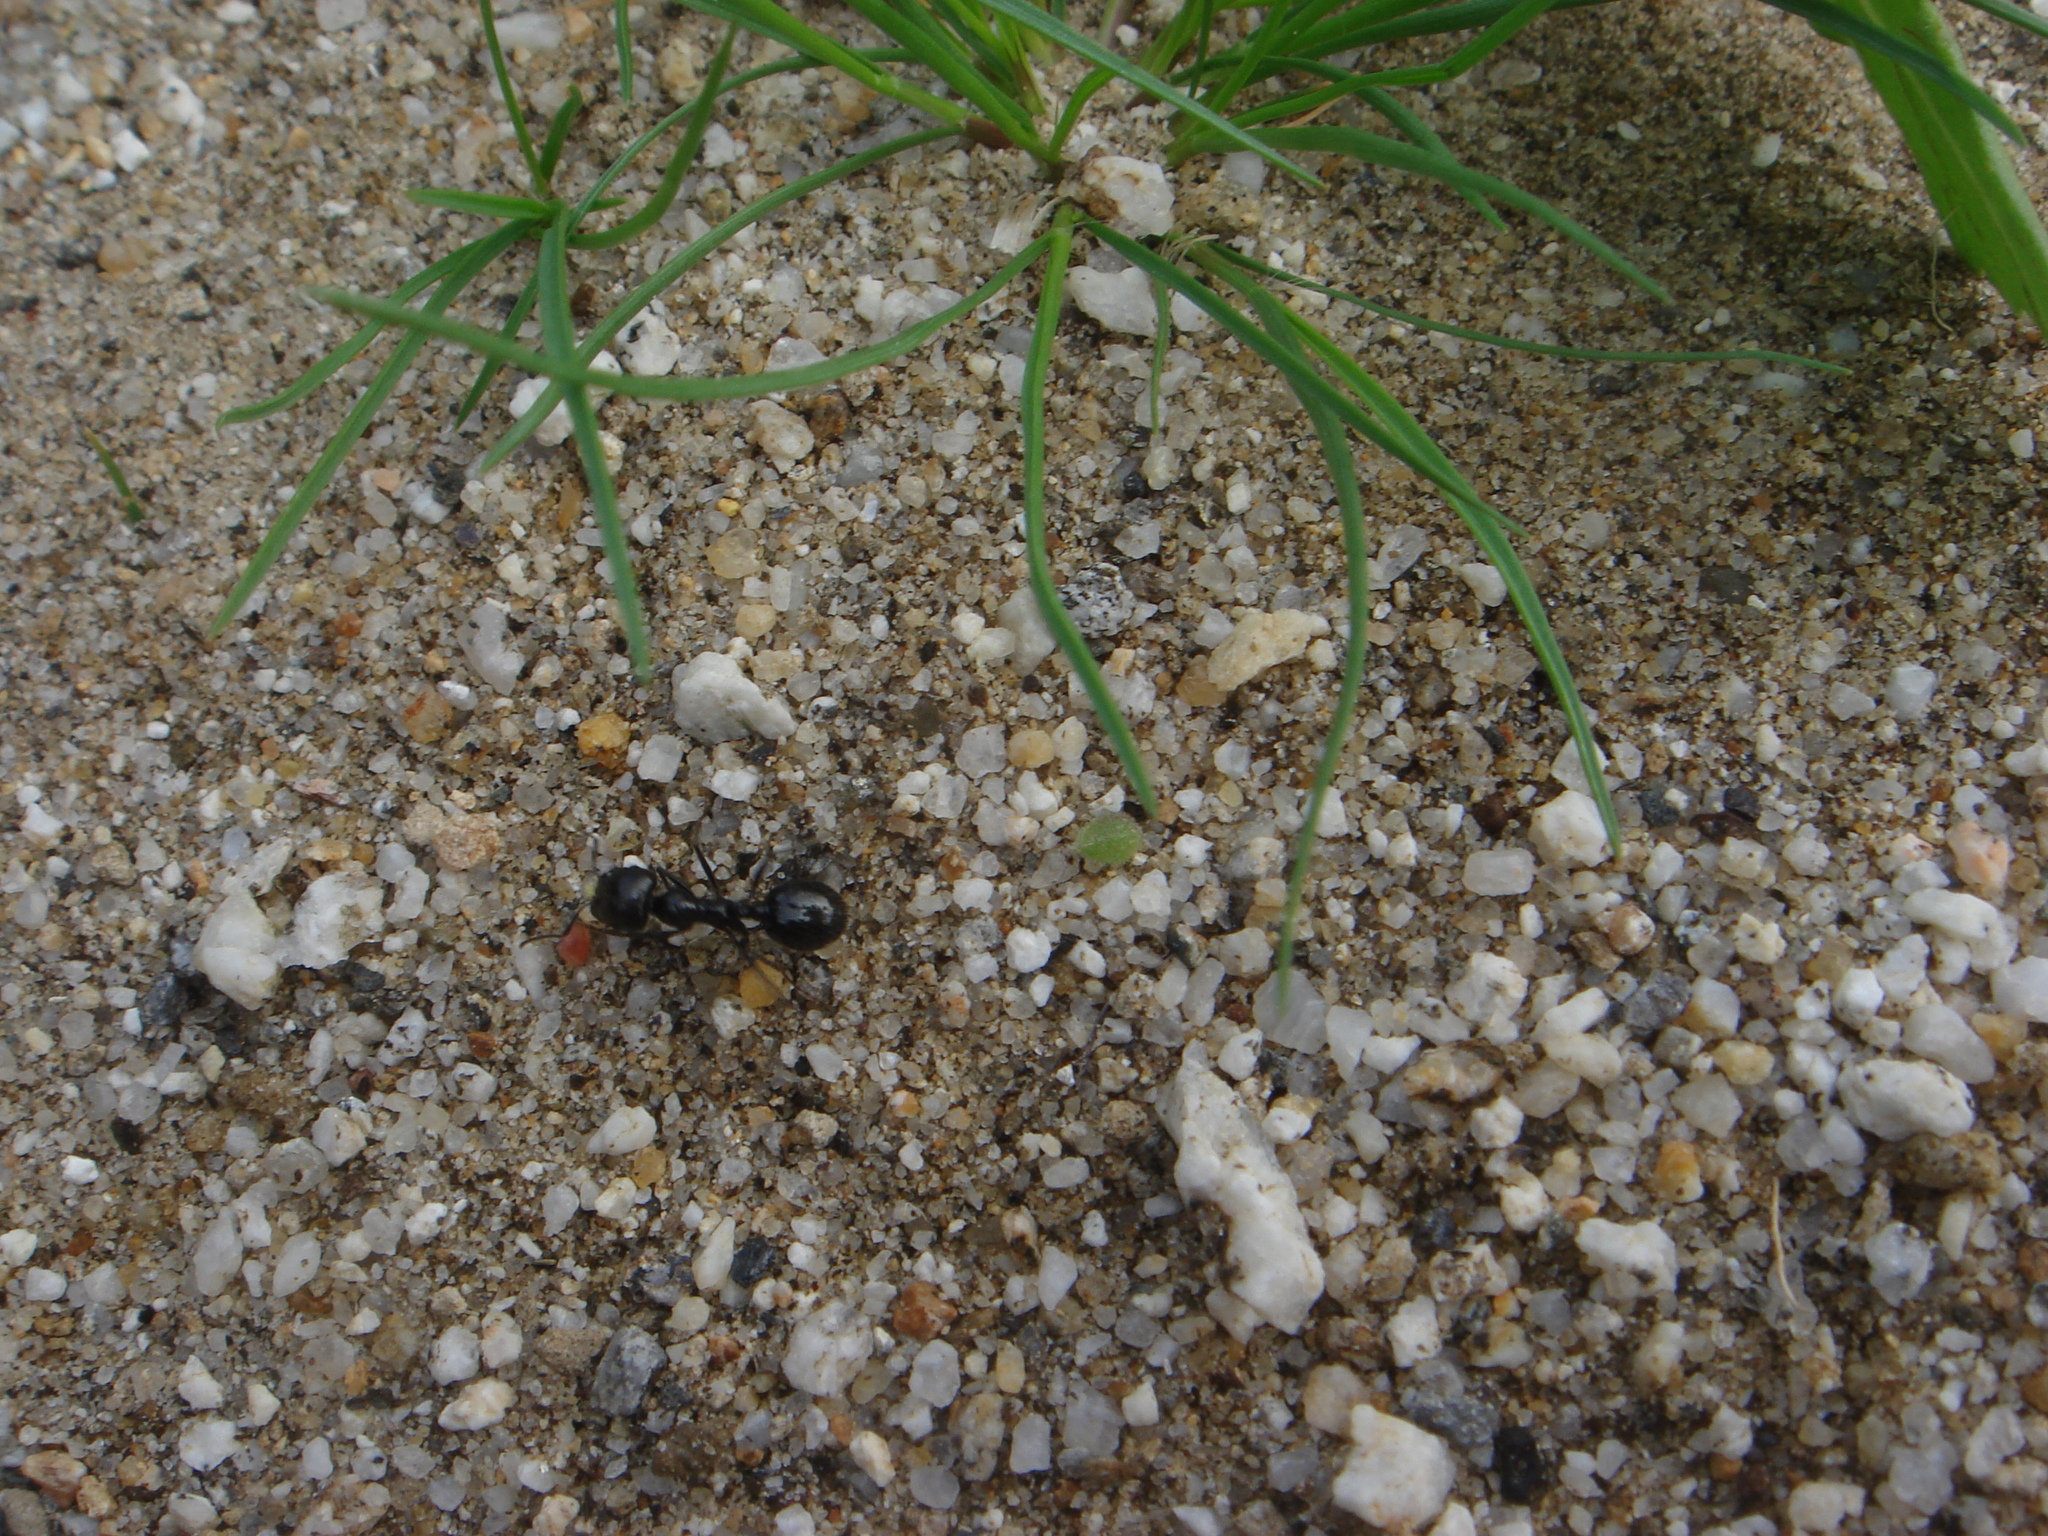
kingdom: Animalia
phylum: Arthropoda
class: Insecta
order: Hymenoptera
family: Formicidae
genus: Messor
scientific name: Messor pergandei
